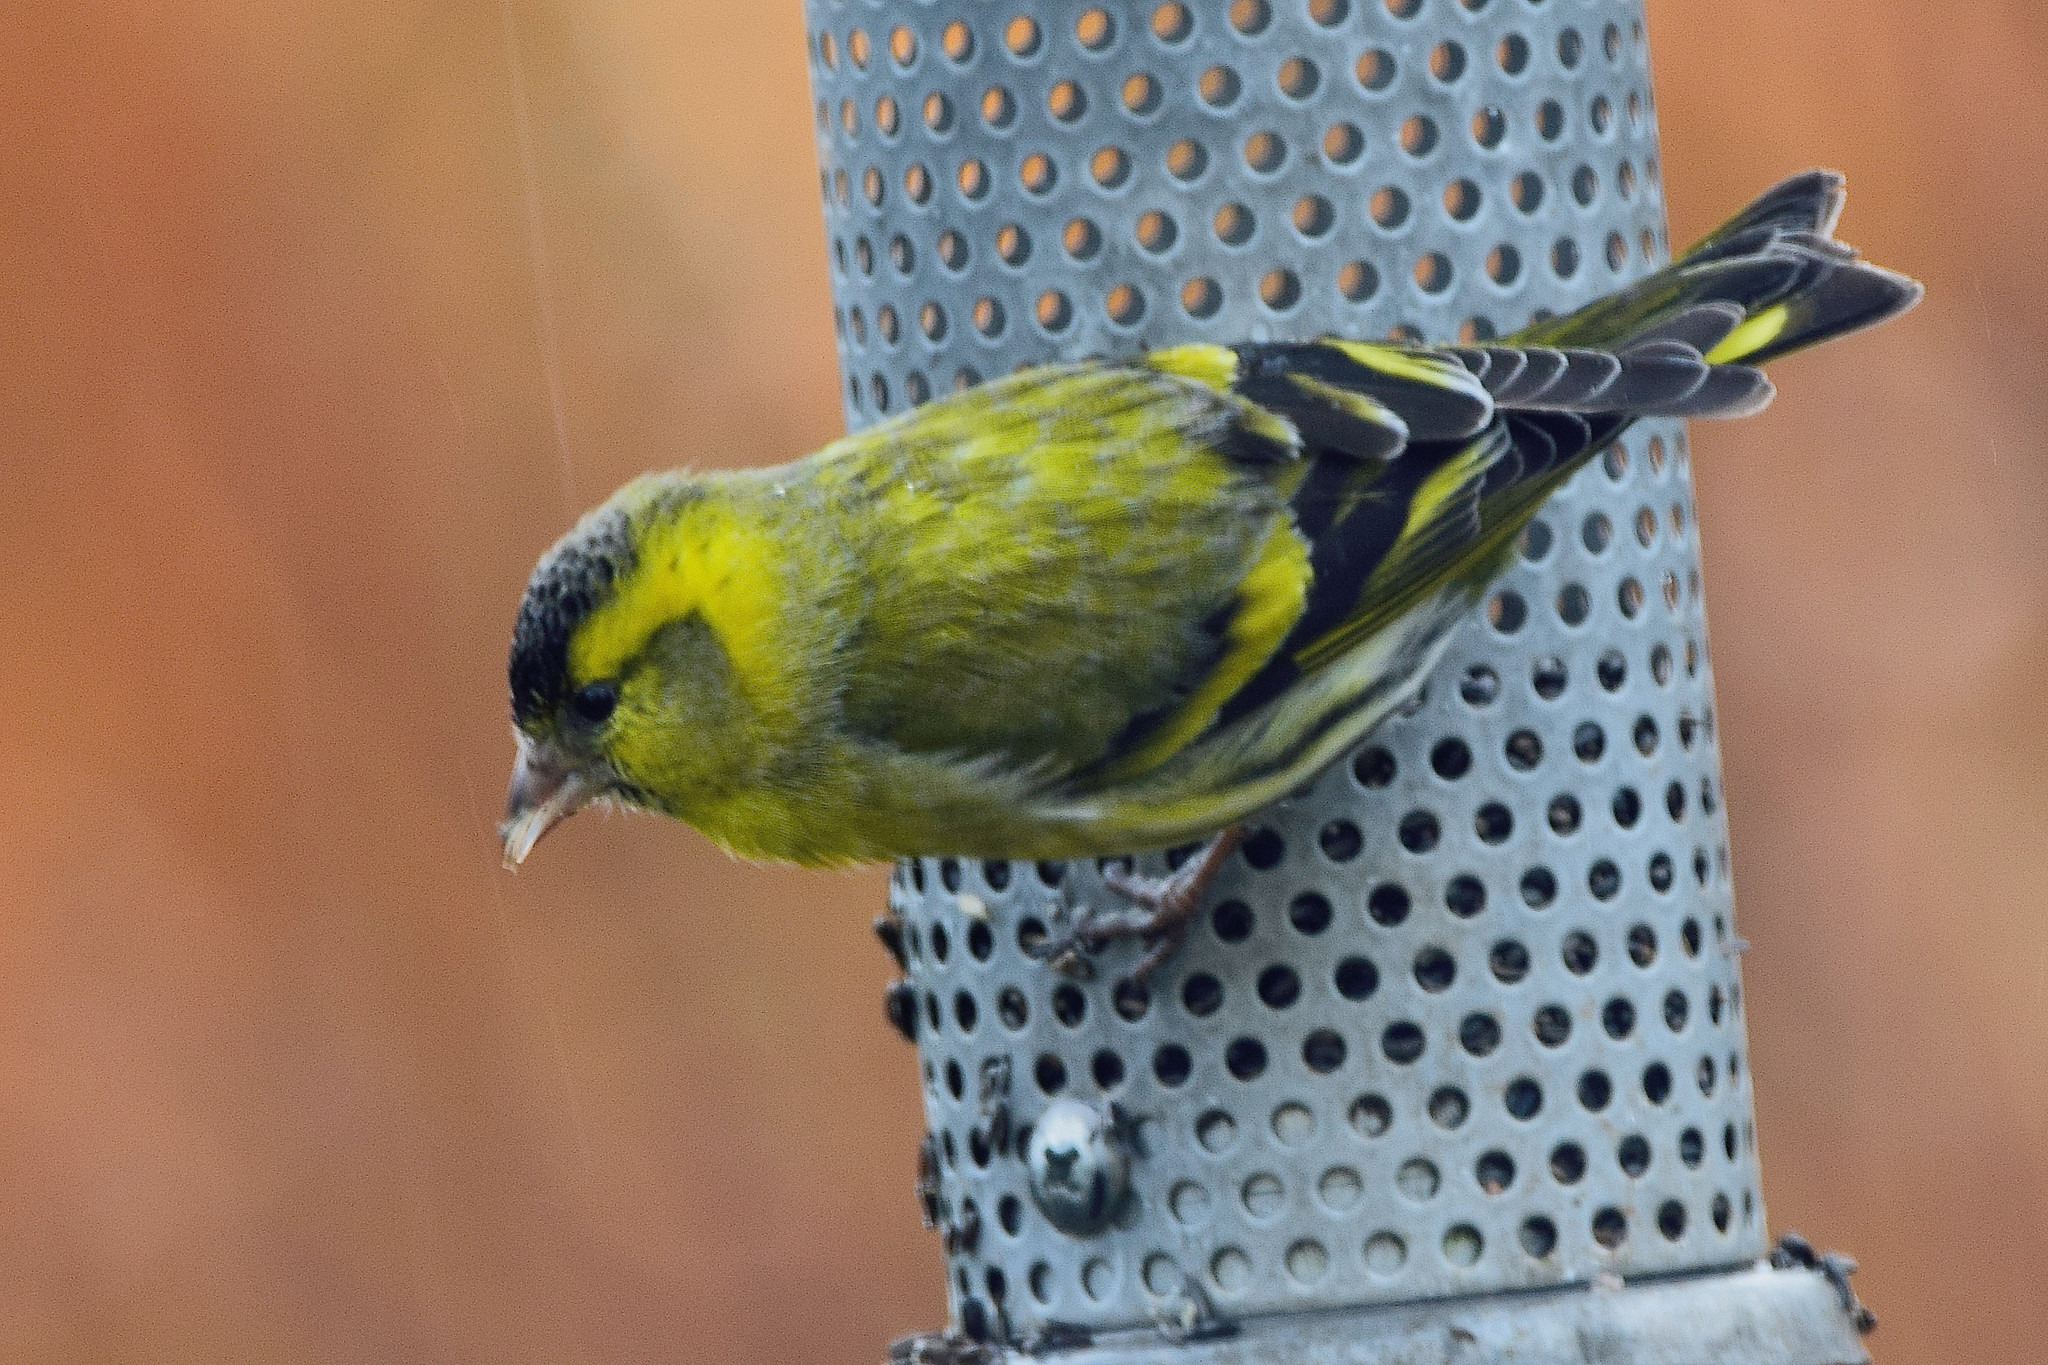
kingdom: Animalia
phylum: Chordata
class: Aves
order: Passeriformes
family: Fringillidae
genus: Spinus
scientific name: Spinus spinus
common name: Eurasian siskin
